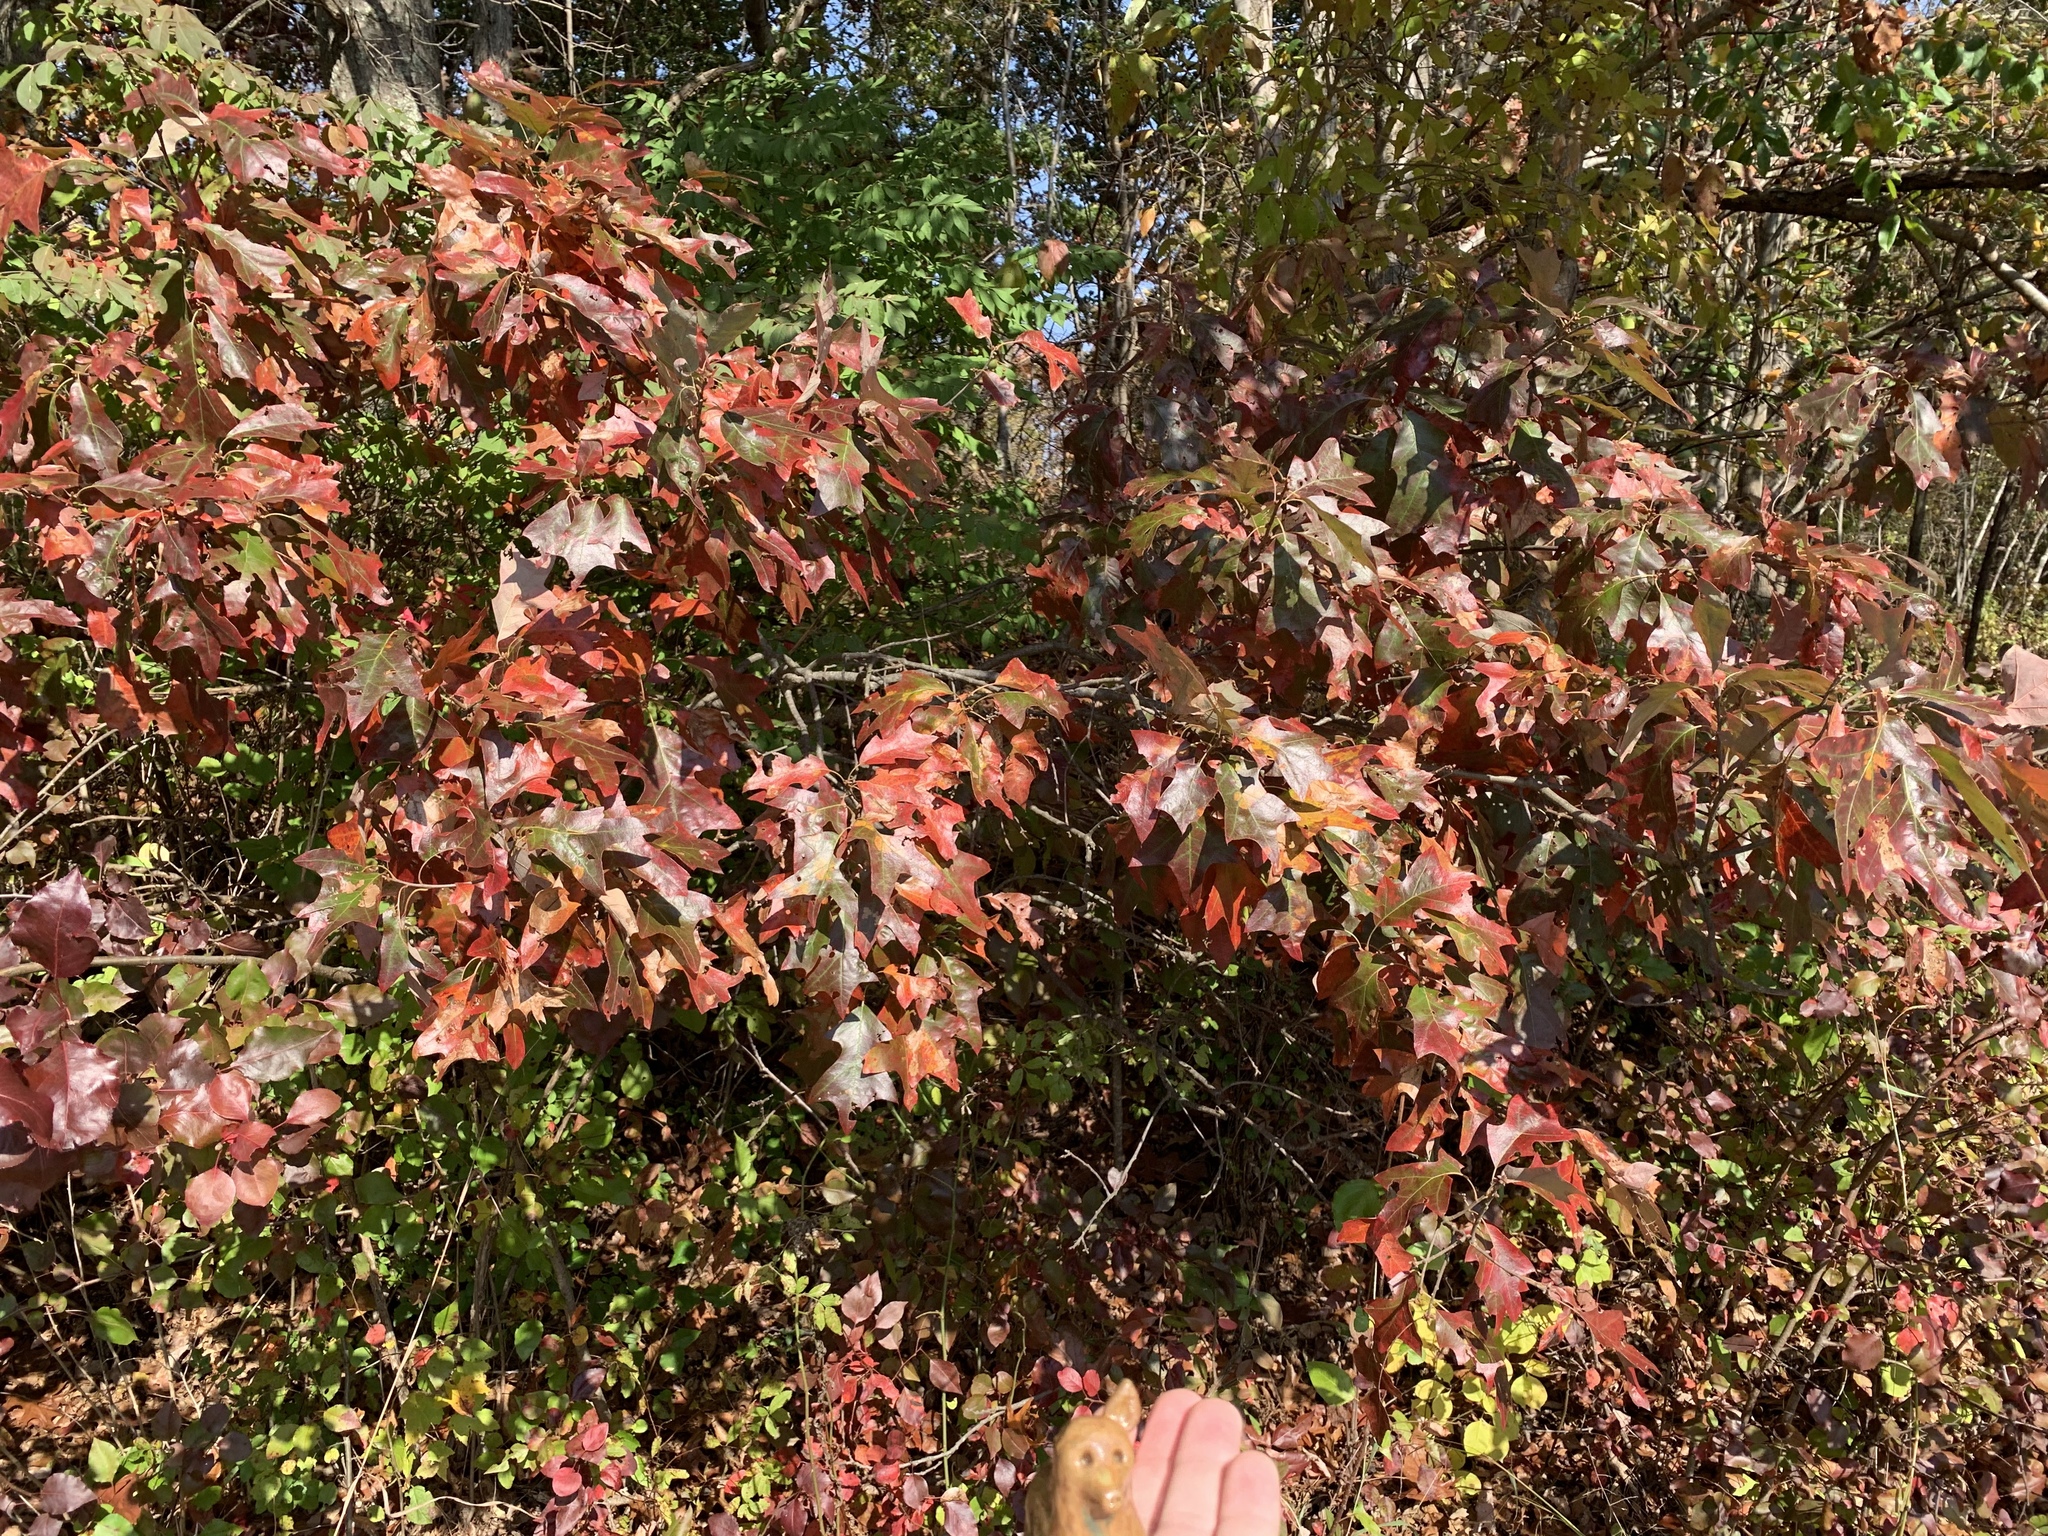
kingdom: Plantae
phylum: Tracheophyta
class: Magnoliopsida
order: Fagales
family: Fagaceae
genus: Quercus
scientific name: Quercus ilicifolia
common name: Bear oak
